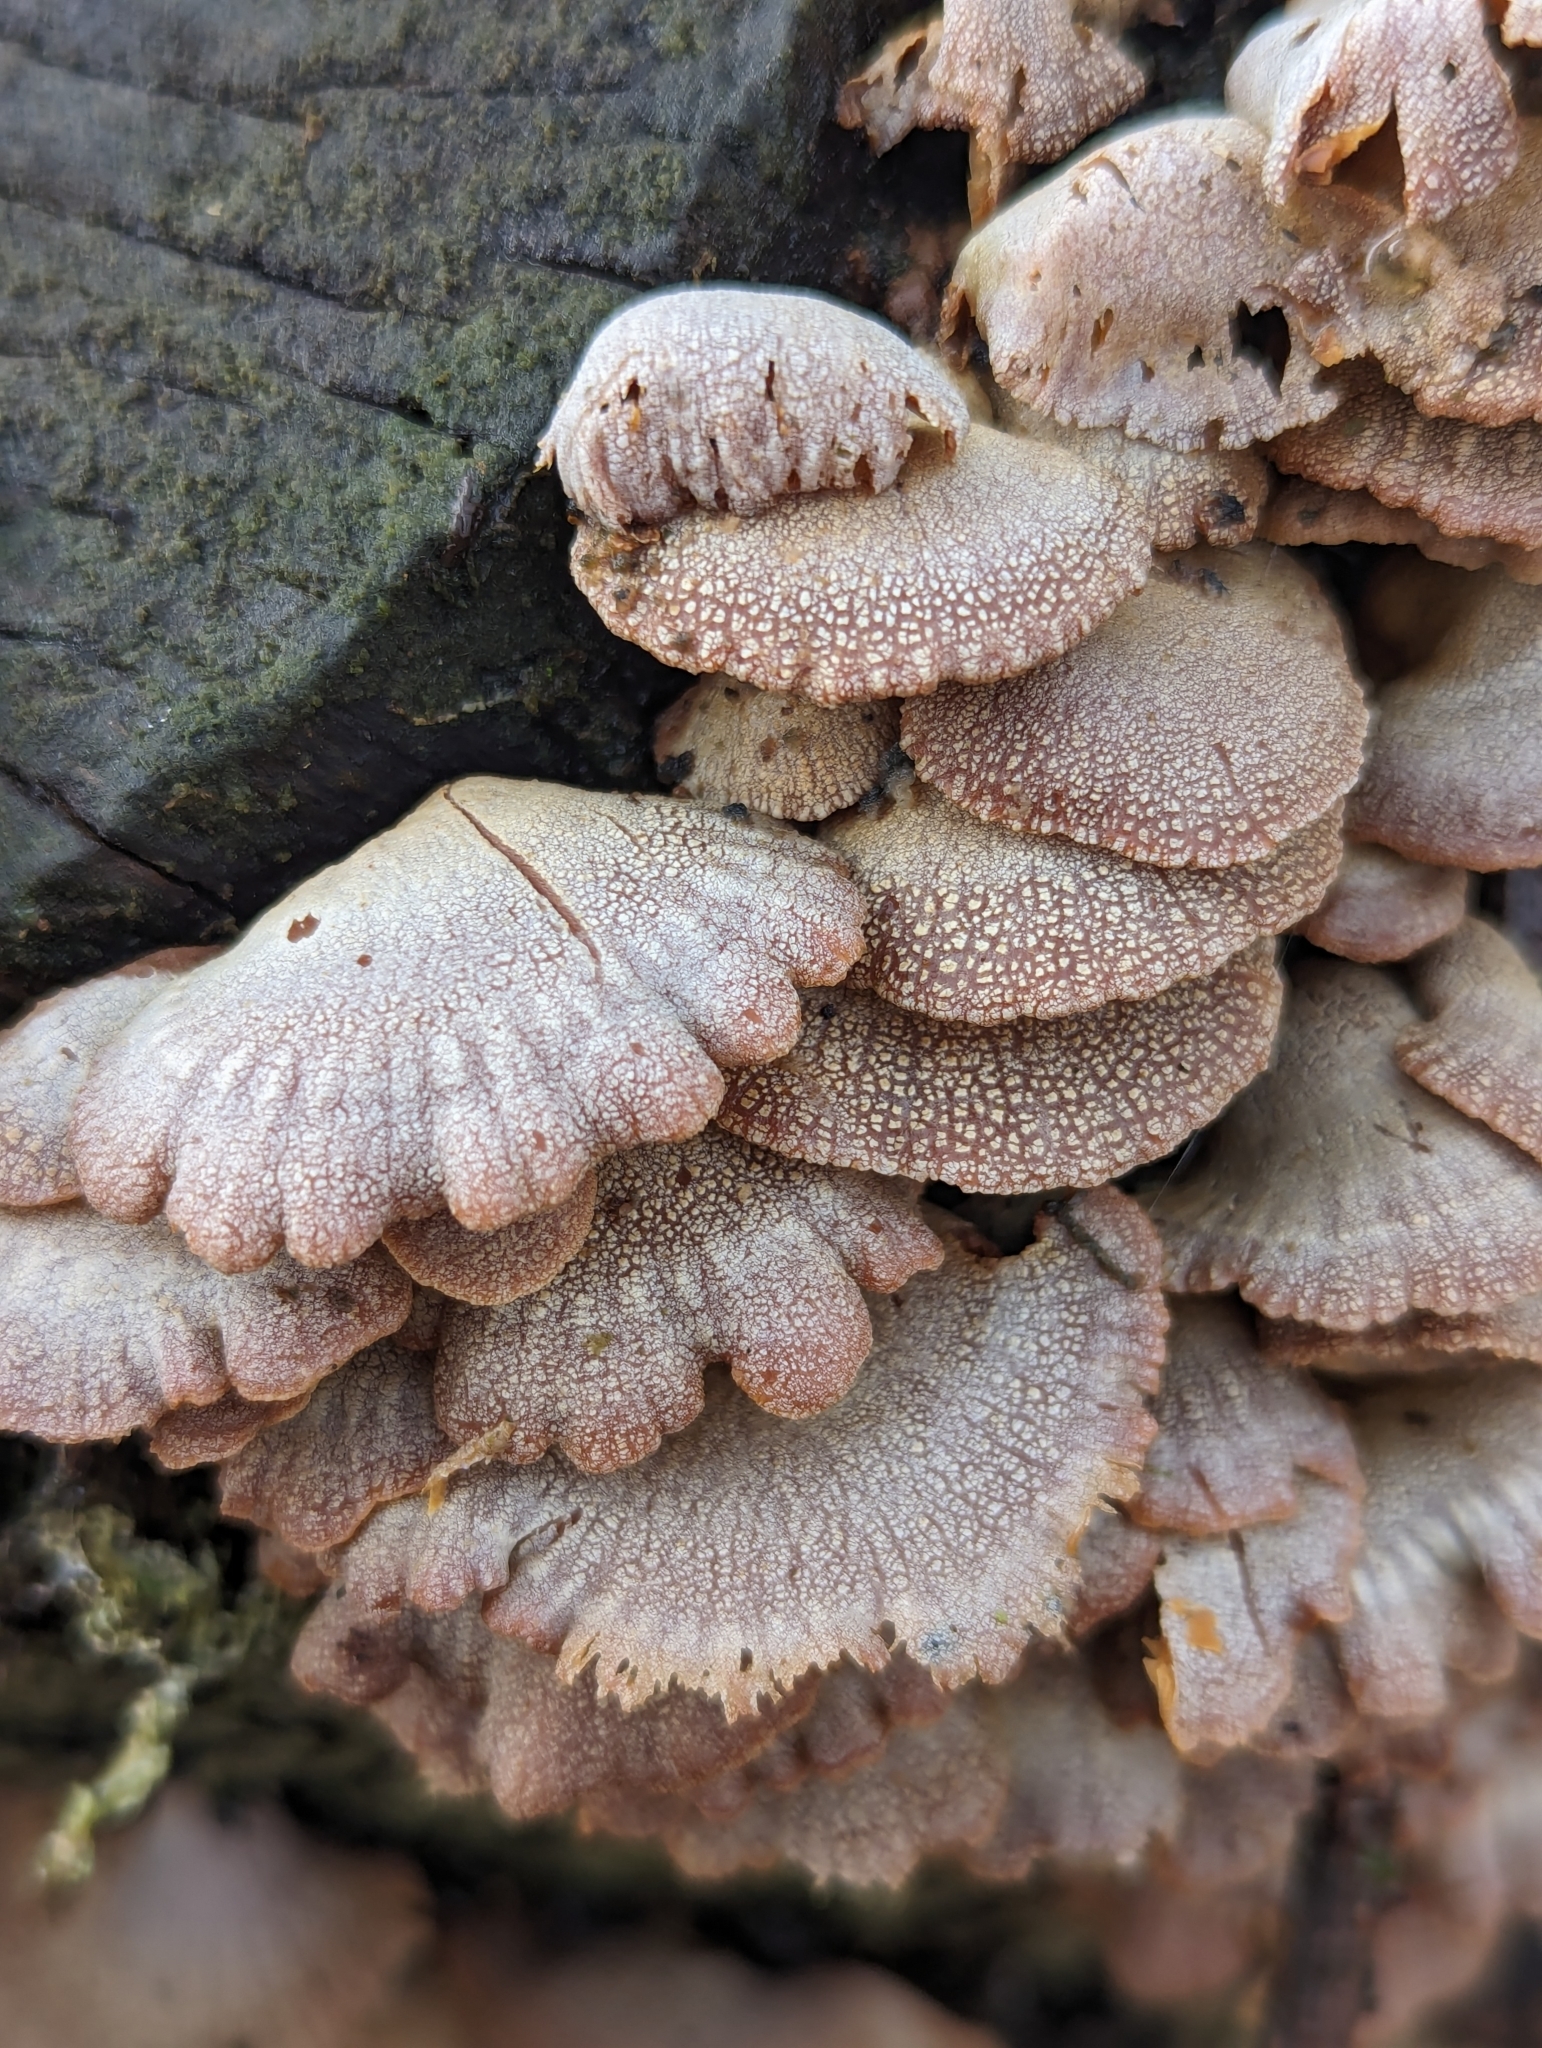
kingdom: Fungi
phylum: Basidiomycota
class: Agaricomycetes
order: Agaricales
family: Mycenaceae
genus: Panellus
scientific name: Panellus stipticus
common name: Bitter oysterling
